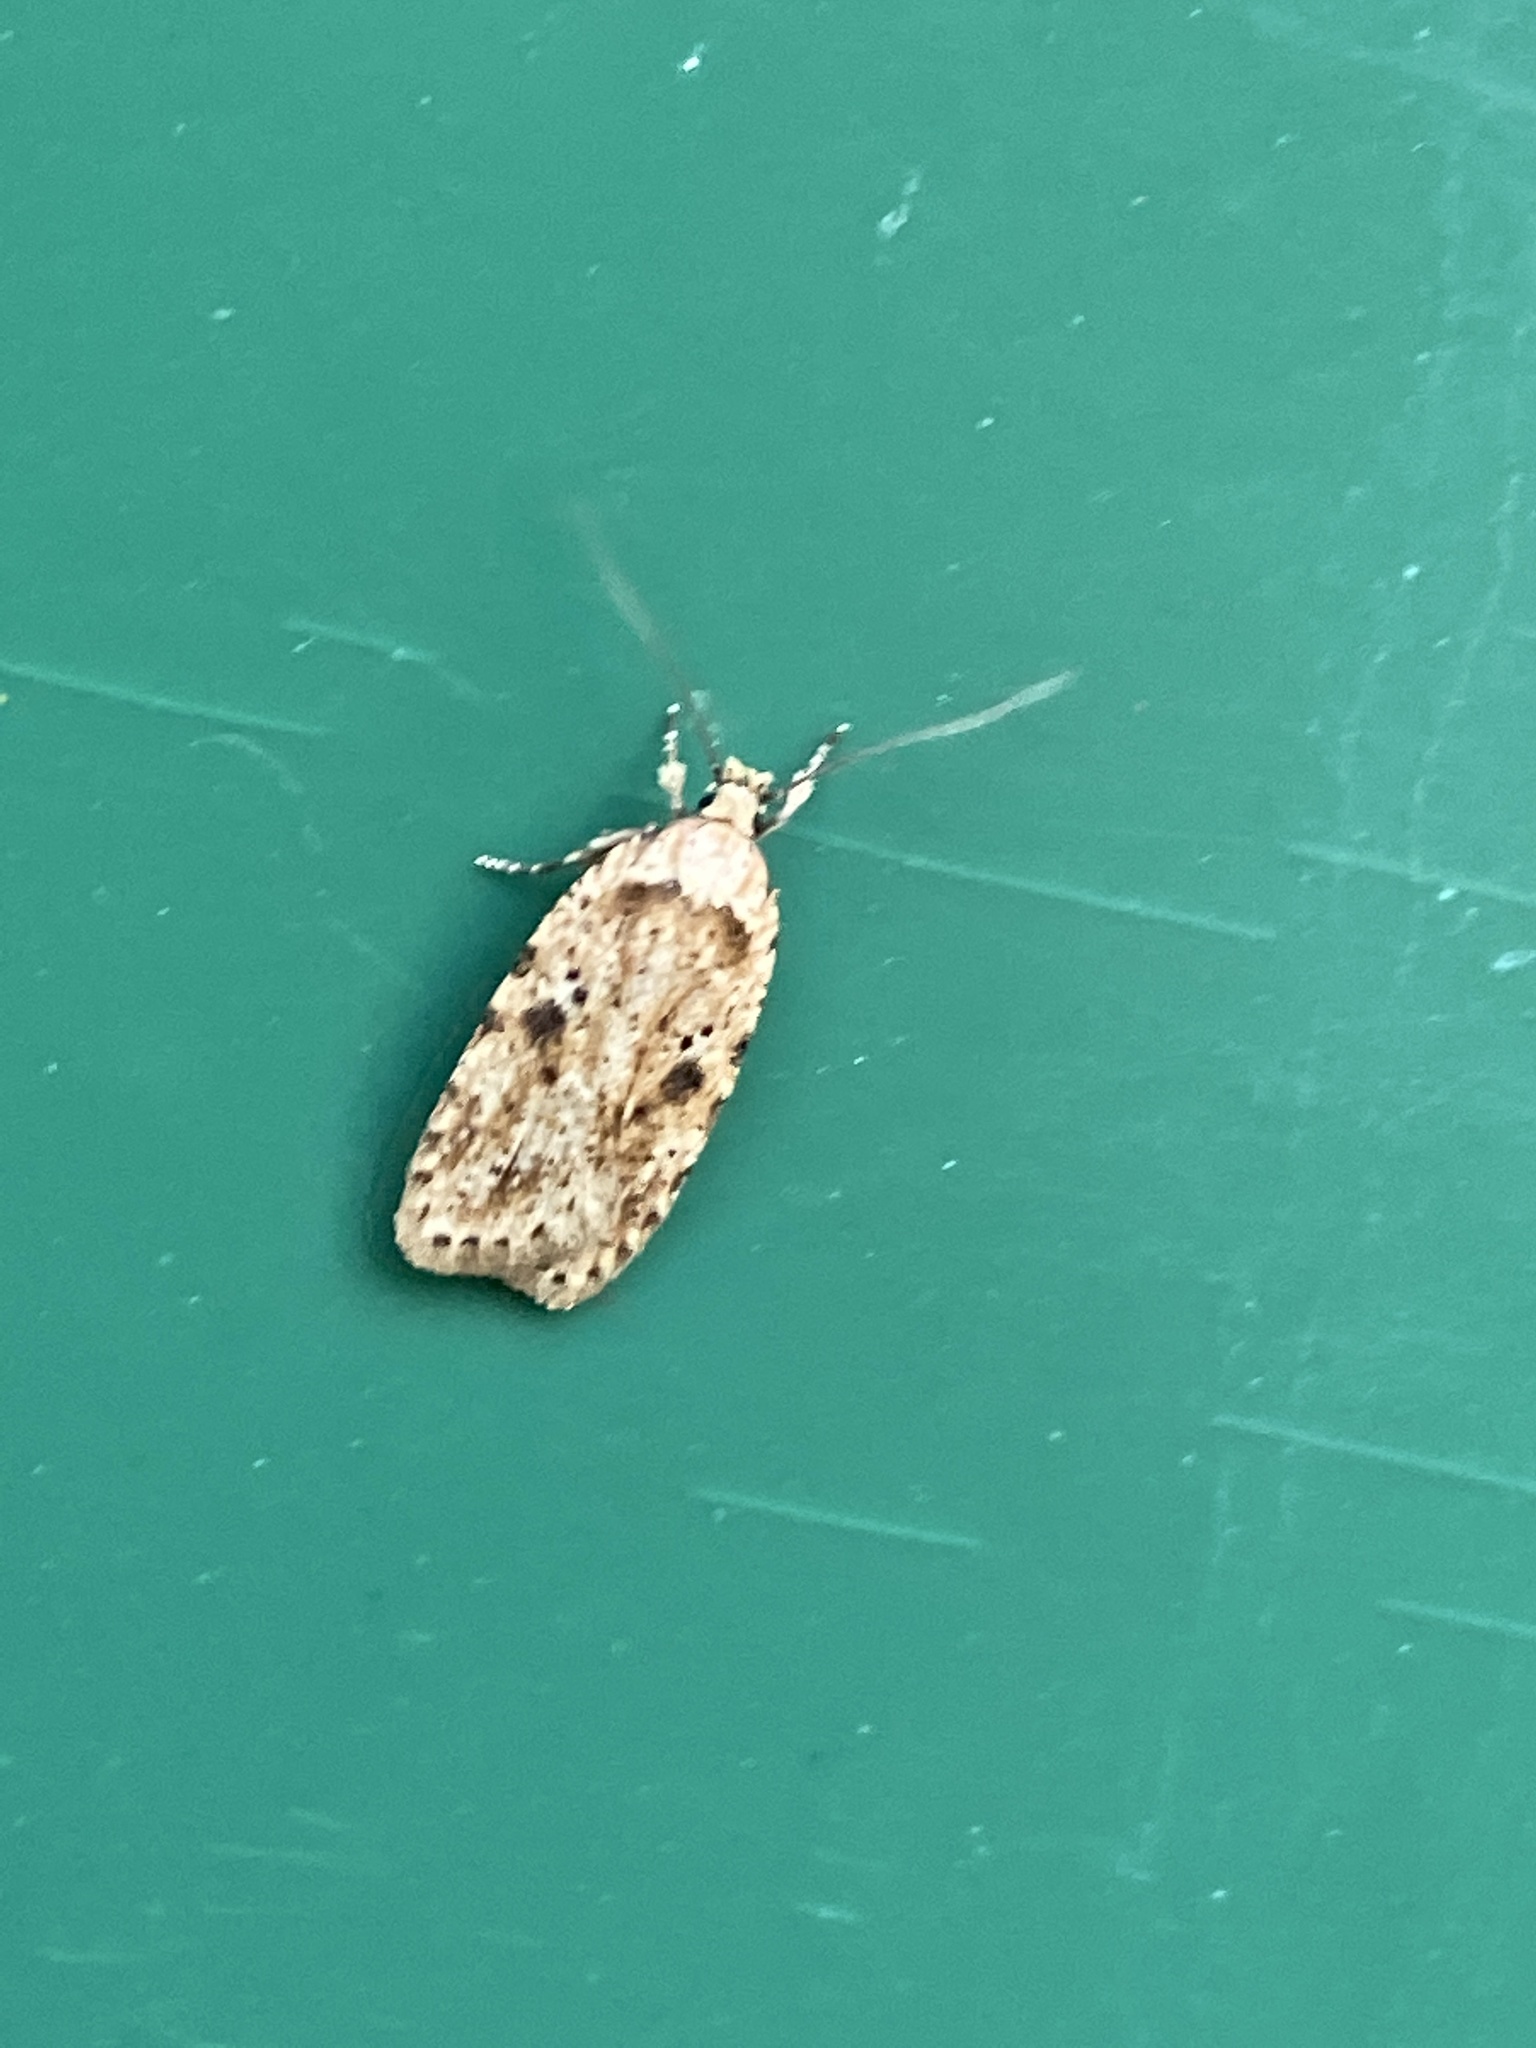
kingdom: Animalia
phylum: Arthropoda
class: Insecta
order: Lepidoptera
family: Depressariidae
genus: Agonopterix
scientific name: Agonopterix arenella
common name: Brindled flat-body
